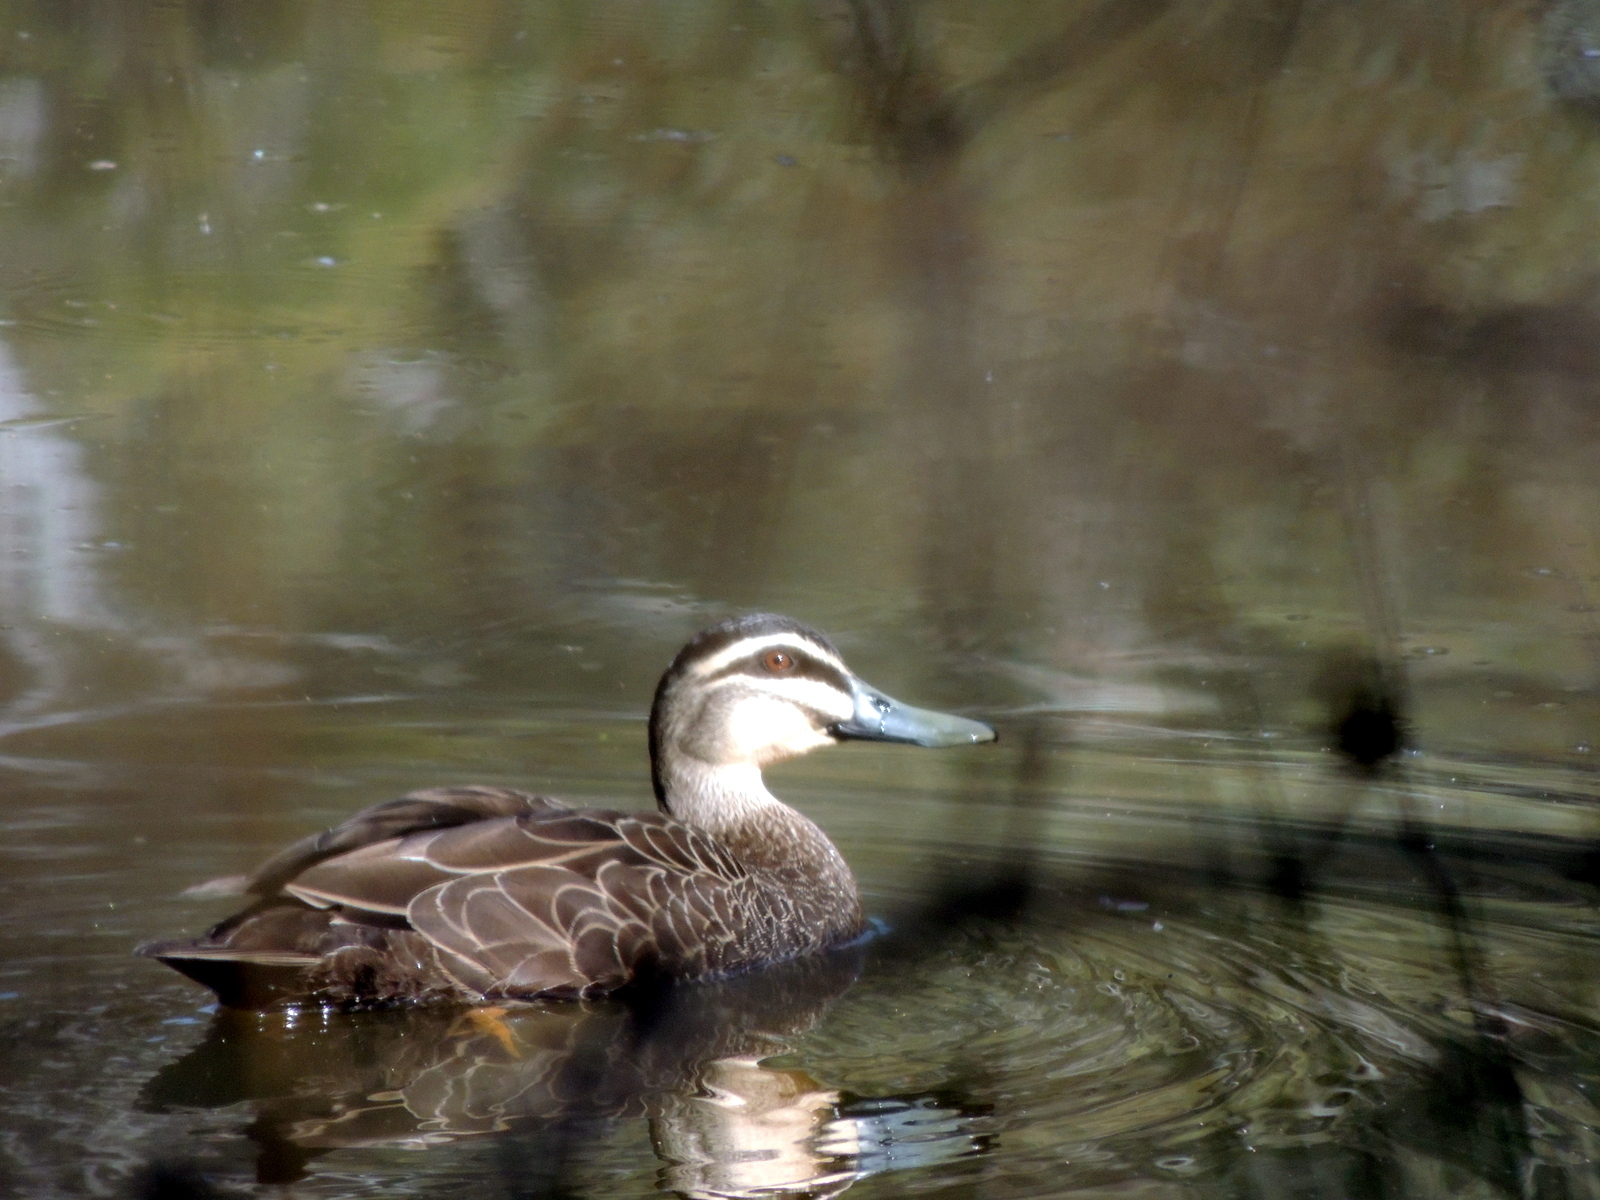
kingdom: Animalia
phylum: Chordata
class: Aves
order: Anseriformes
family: Anatidae
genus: Anas
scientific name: Anas superciliosa
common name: Pacific black duck
